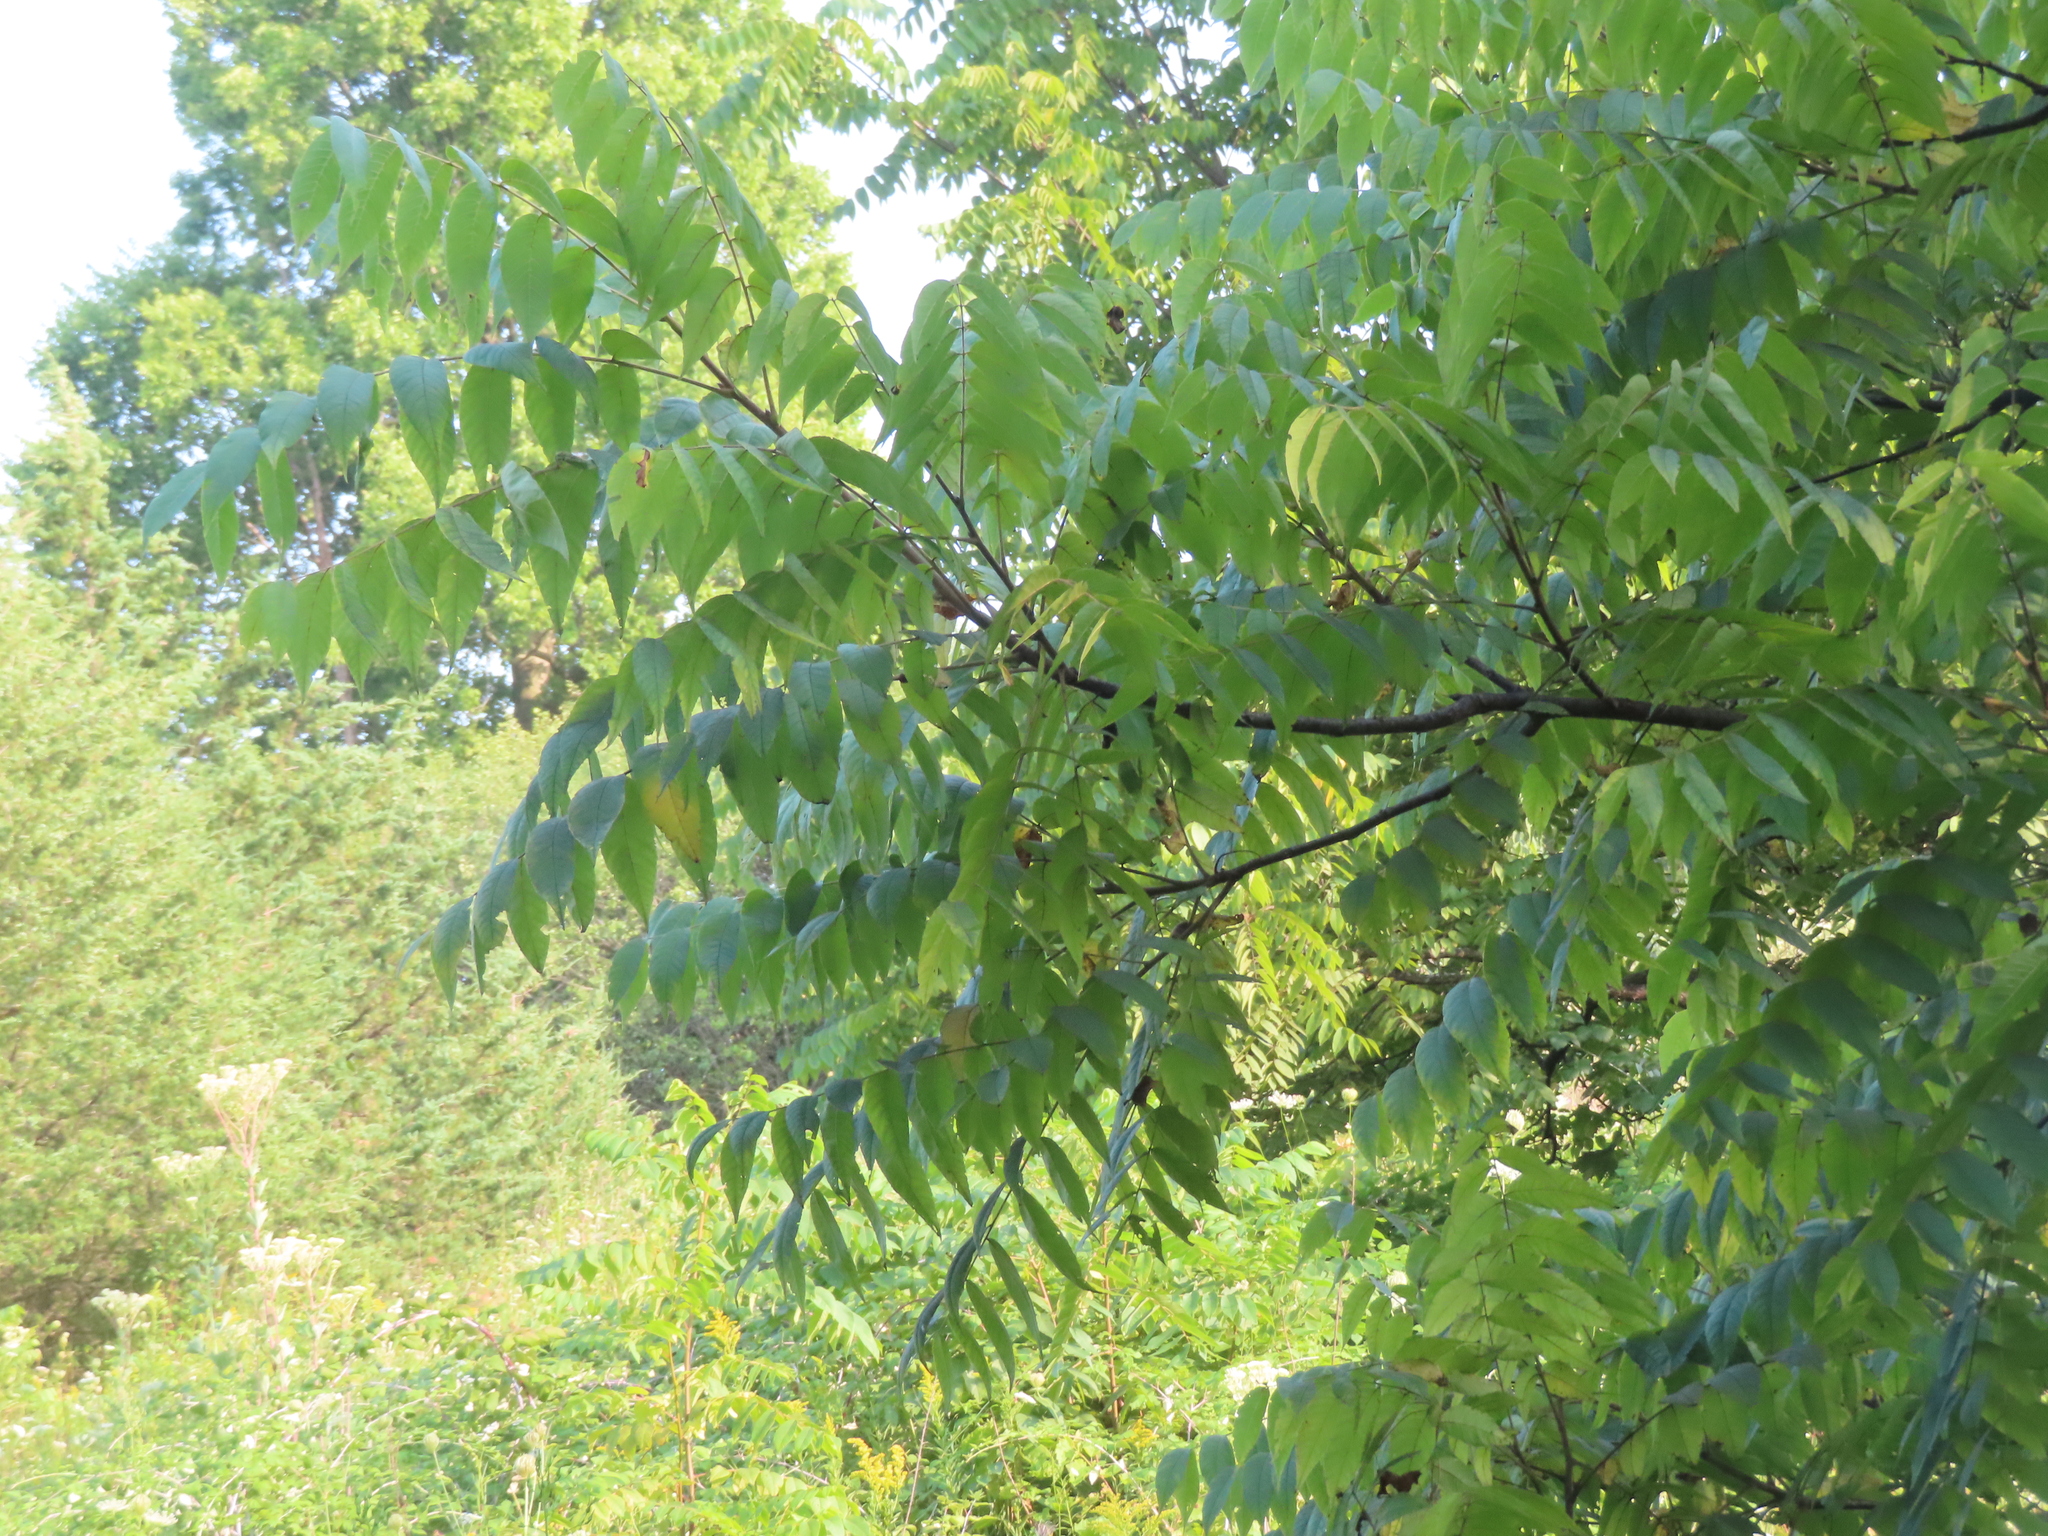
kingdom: Plantae
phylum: Tracheophyta
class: Magnoliopsida
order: Fagales
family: Juglandaceae
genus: Juglans
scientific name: Juglans nigra
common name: Black walnut
